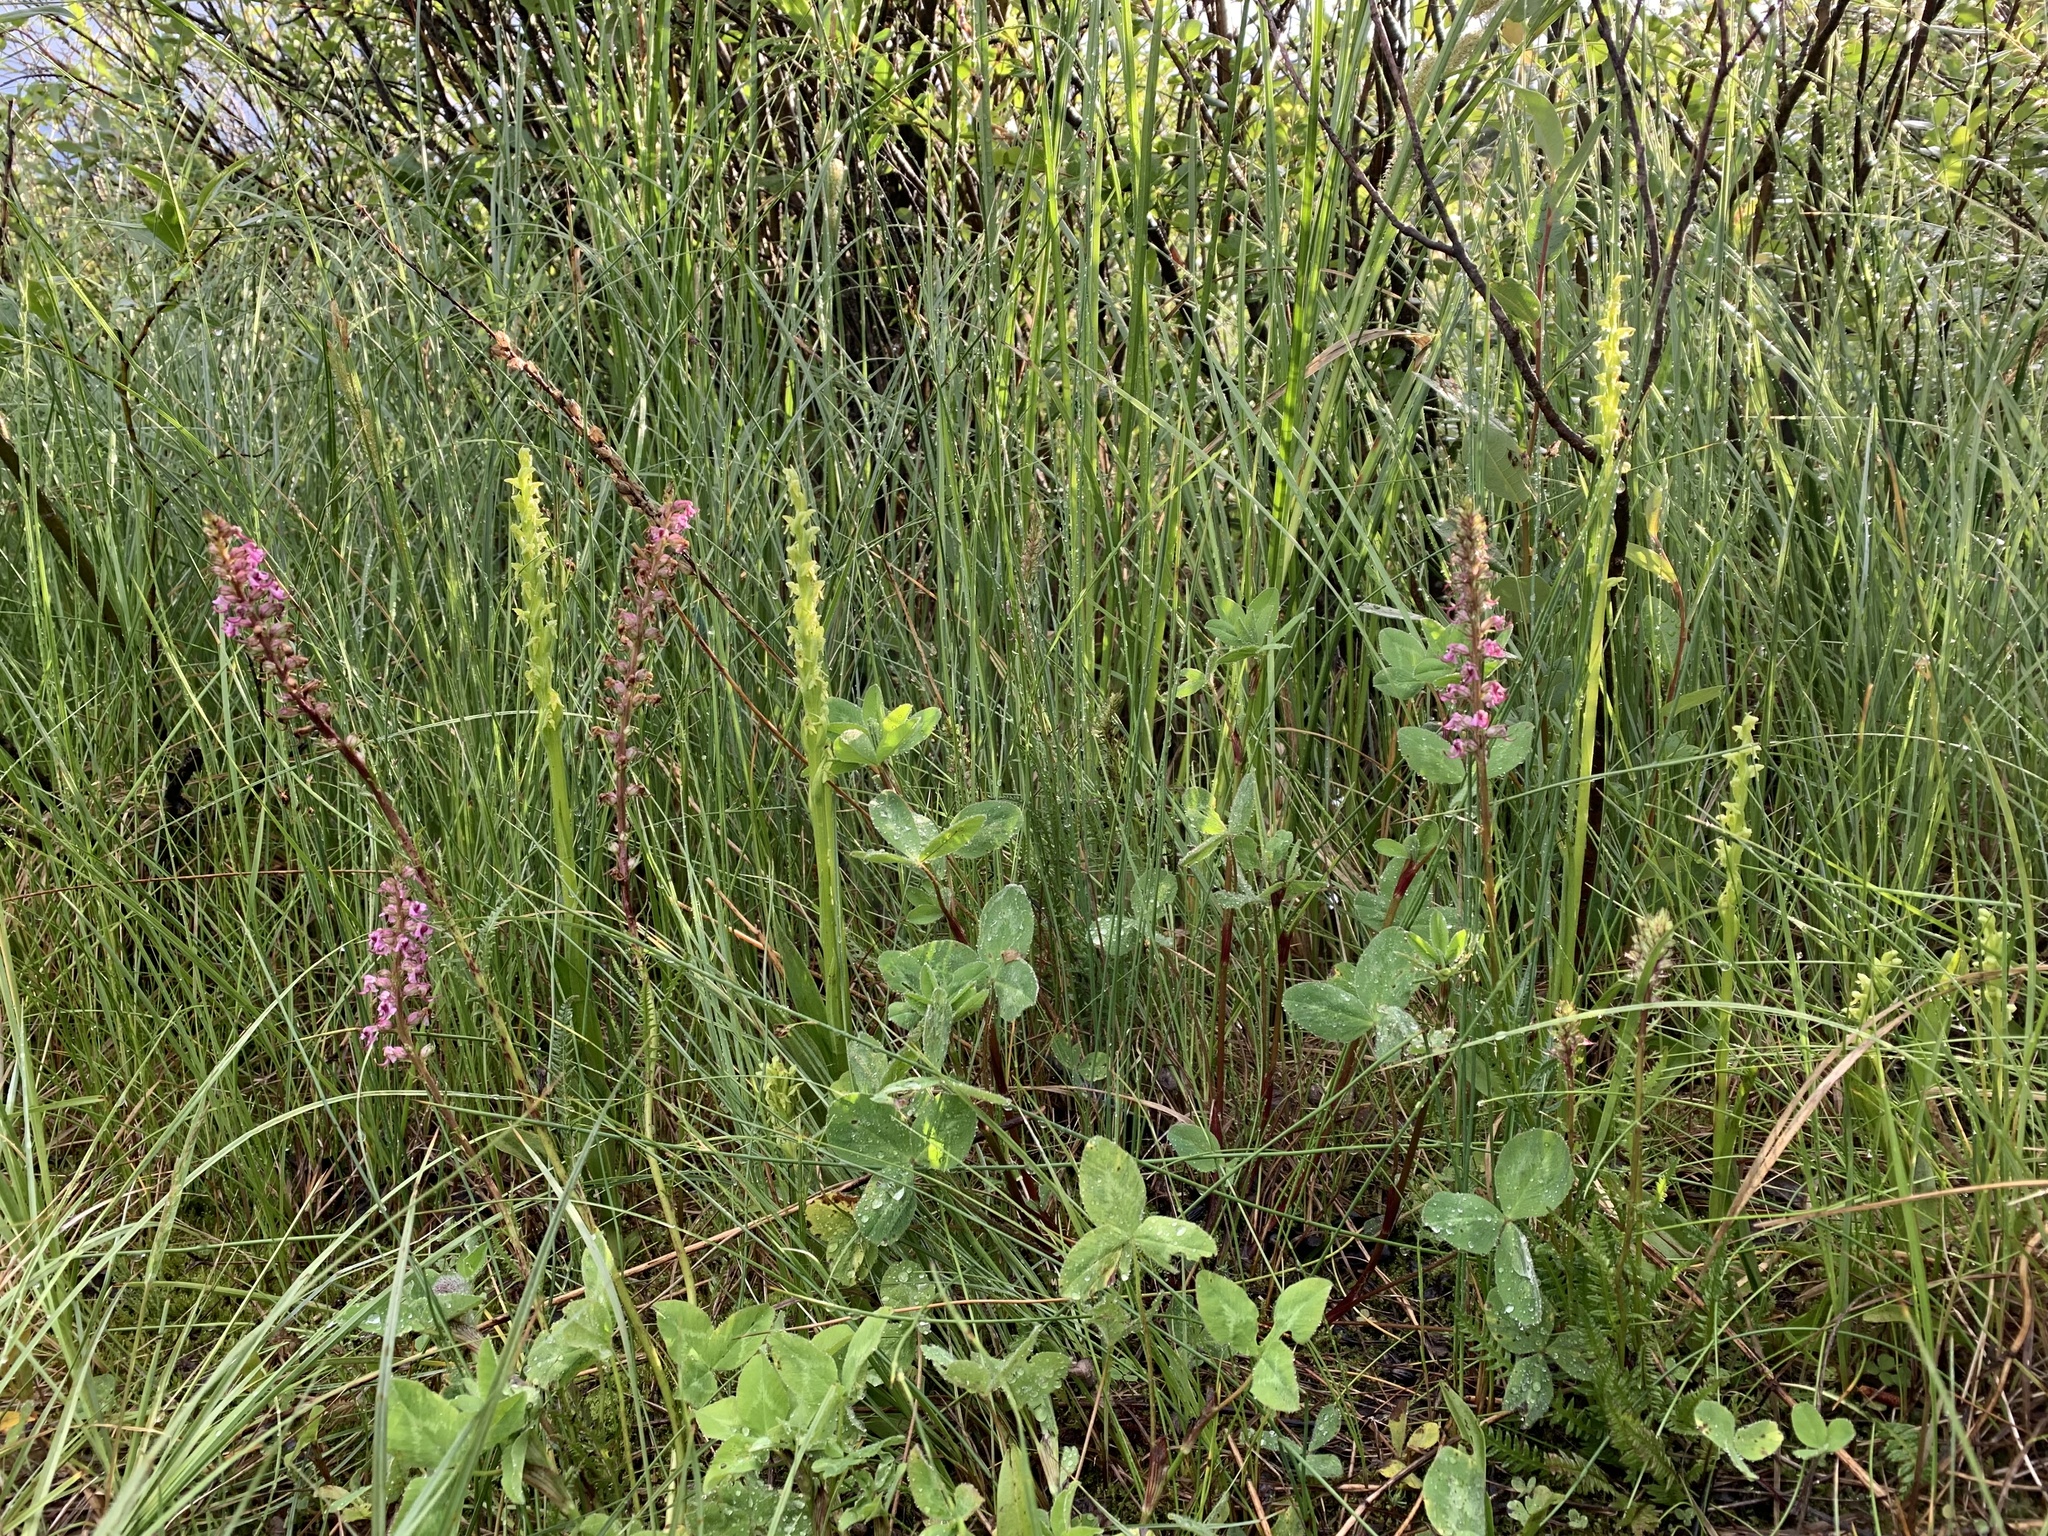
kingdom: Plantae
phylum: Tracheophyta
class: Magnoliopsida
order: Lamiales
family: Orobanchaceae
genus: Pedicularis
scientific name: Pedicularis groenlandica
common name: Elephant's-head
